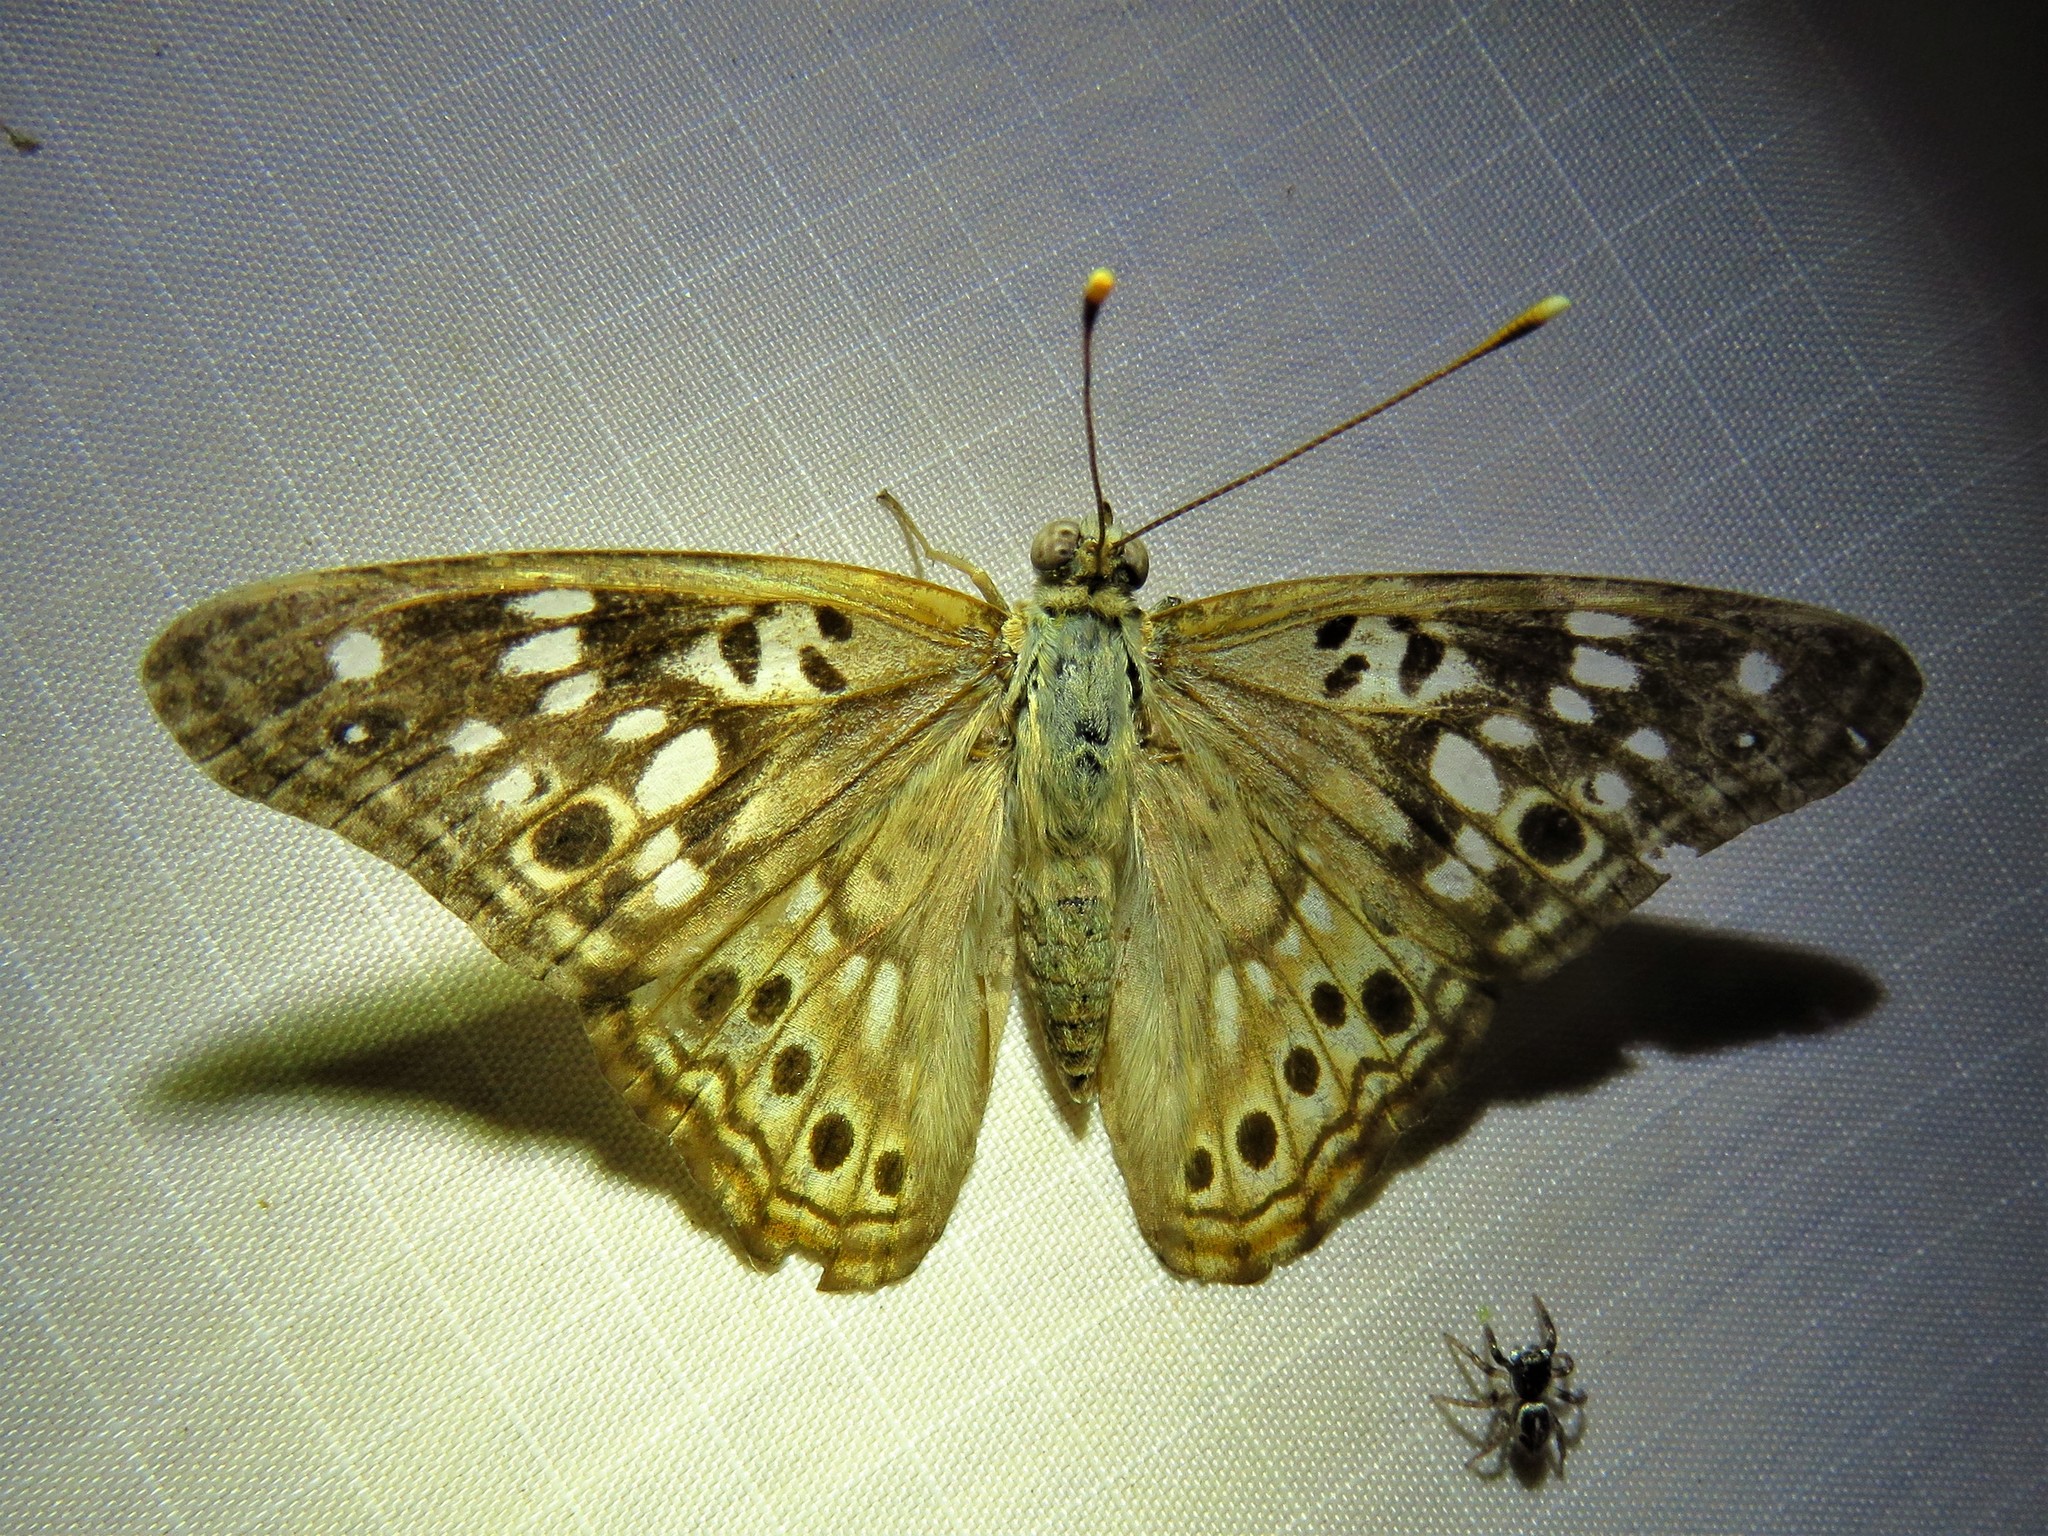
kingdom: Animalia
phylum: Arthropoda
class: Insecta
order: Lepidoptera
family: Nymphalidae
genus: Asterocampa
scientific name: Asterocampa celtis
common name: Hackberry emperor
